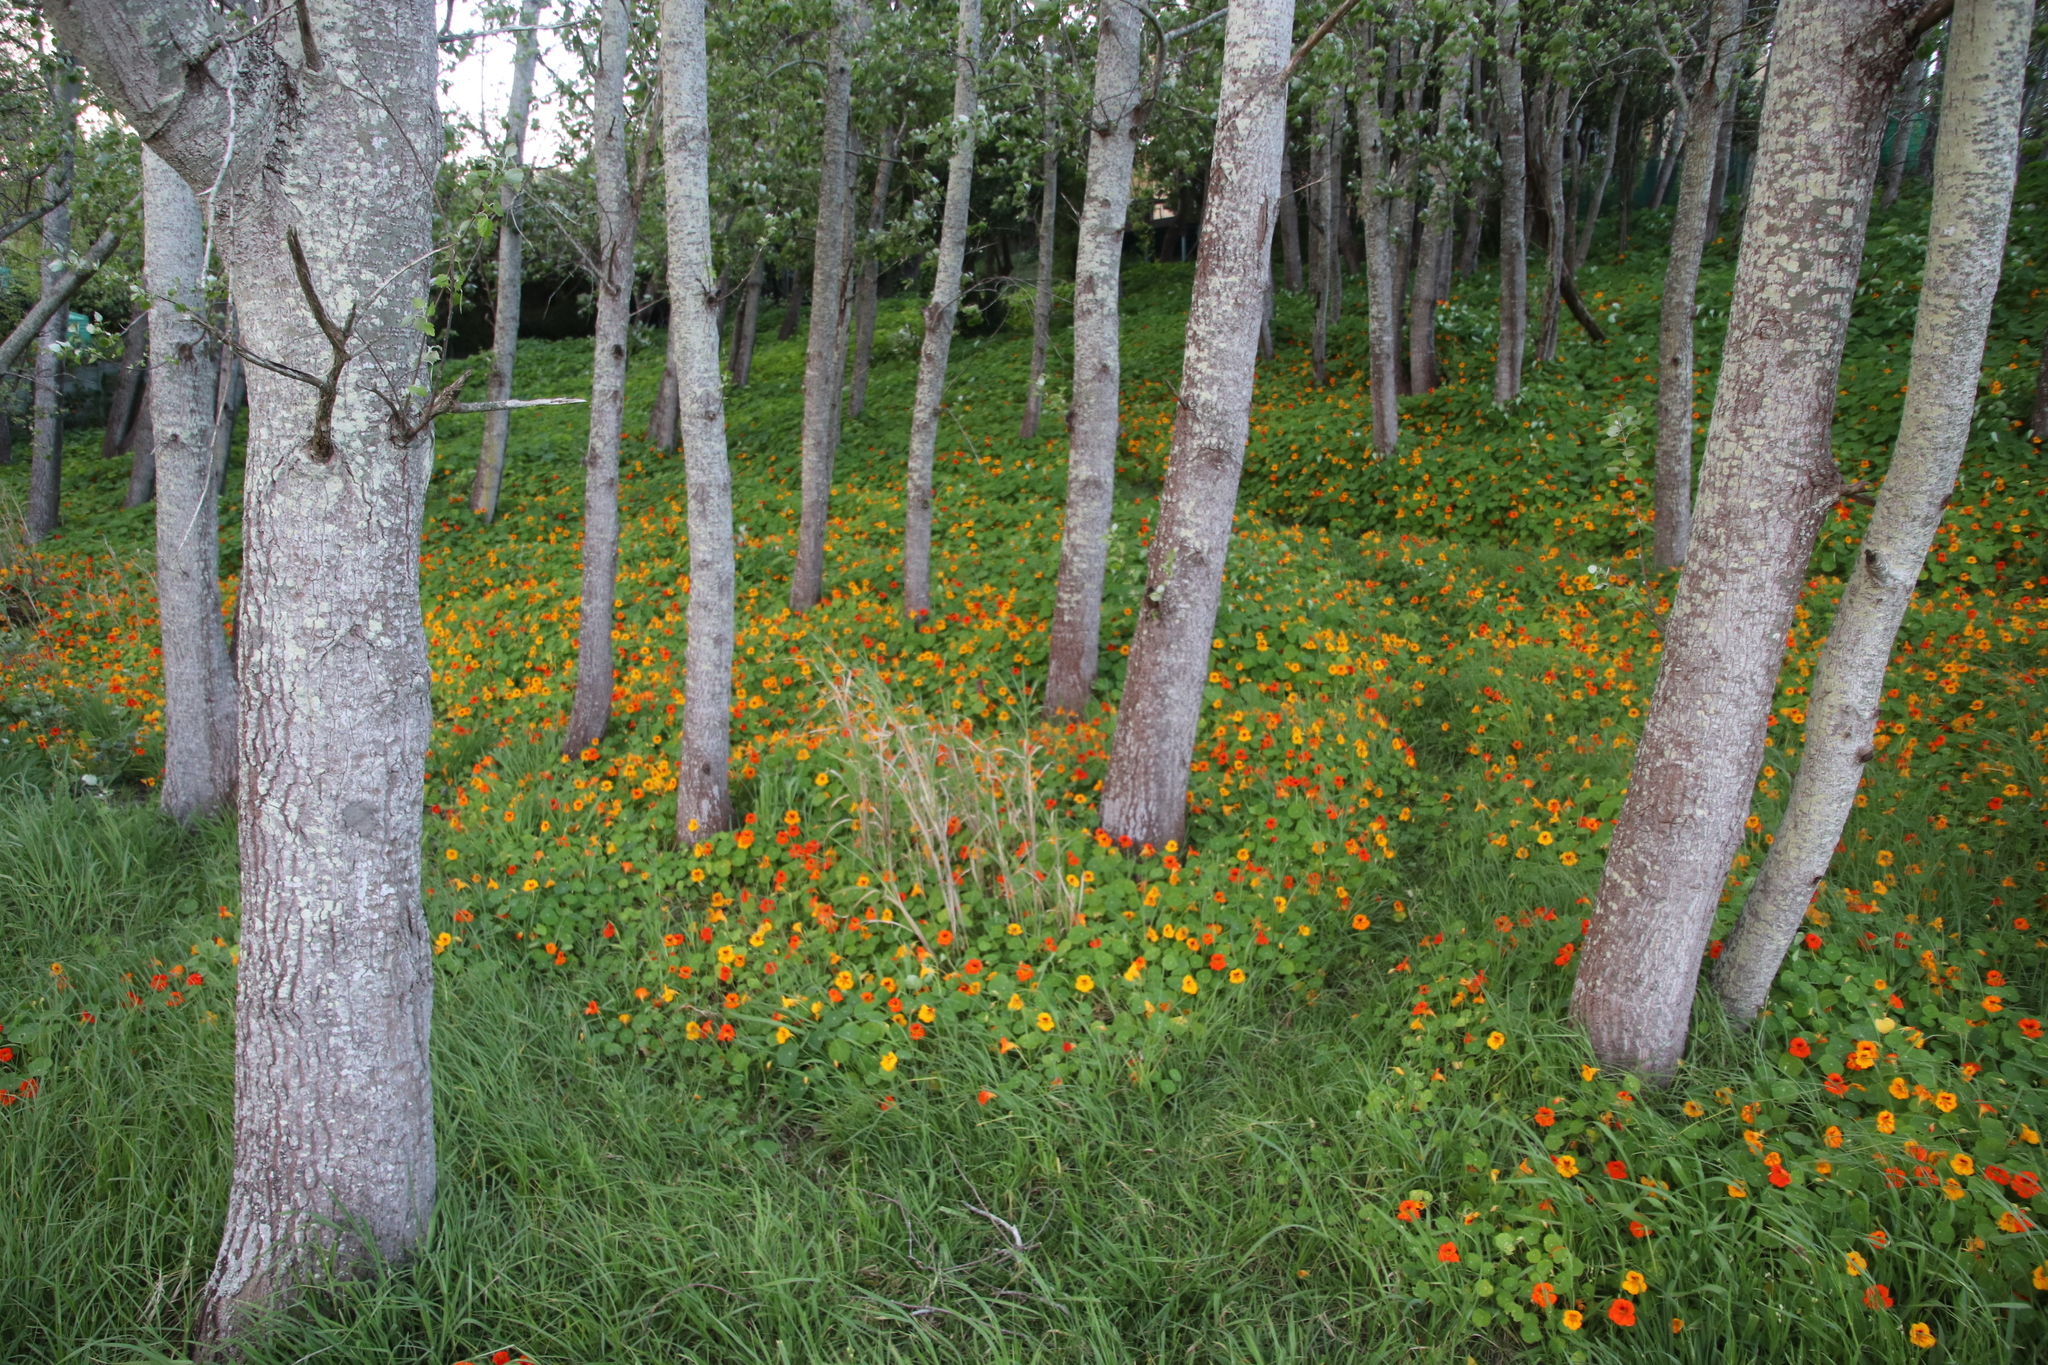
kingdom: Plantae
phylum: Tracheophyta
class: Magnoliopsida
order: Brassicales
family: Tropaeolaceae
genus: Tropaeolum
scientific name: Tropaeolum majus
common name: Nasturtium
